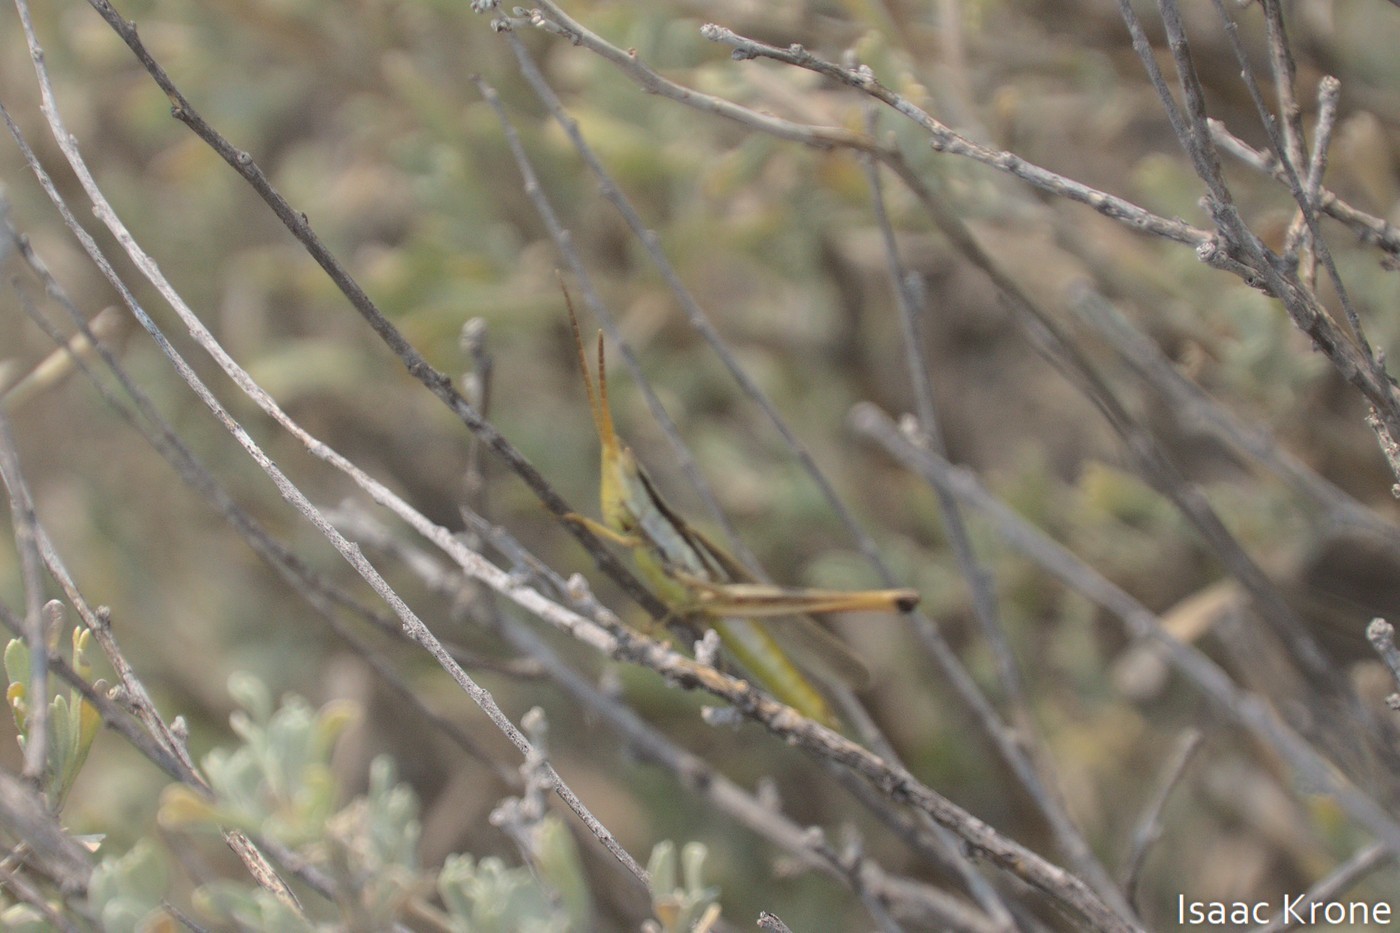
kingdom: Animalia
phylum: Arthropoda
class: Insecta
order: Orthoptera
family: Acrididae
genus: Mermiria
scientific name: Mermiria bivittata
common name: Two-striped mermiria grasshopper
